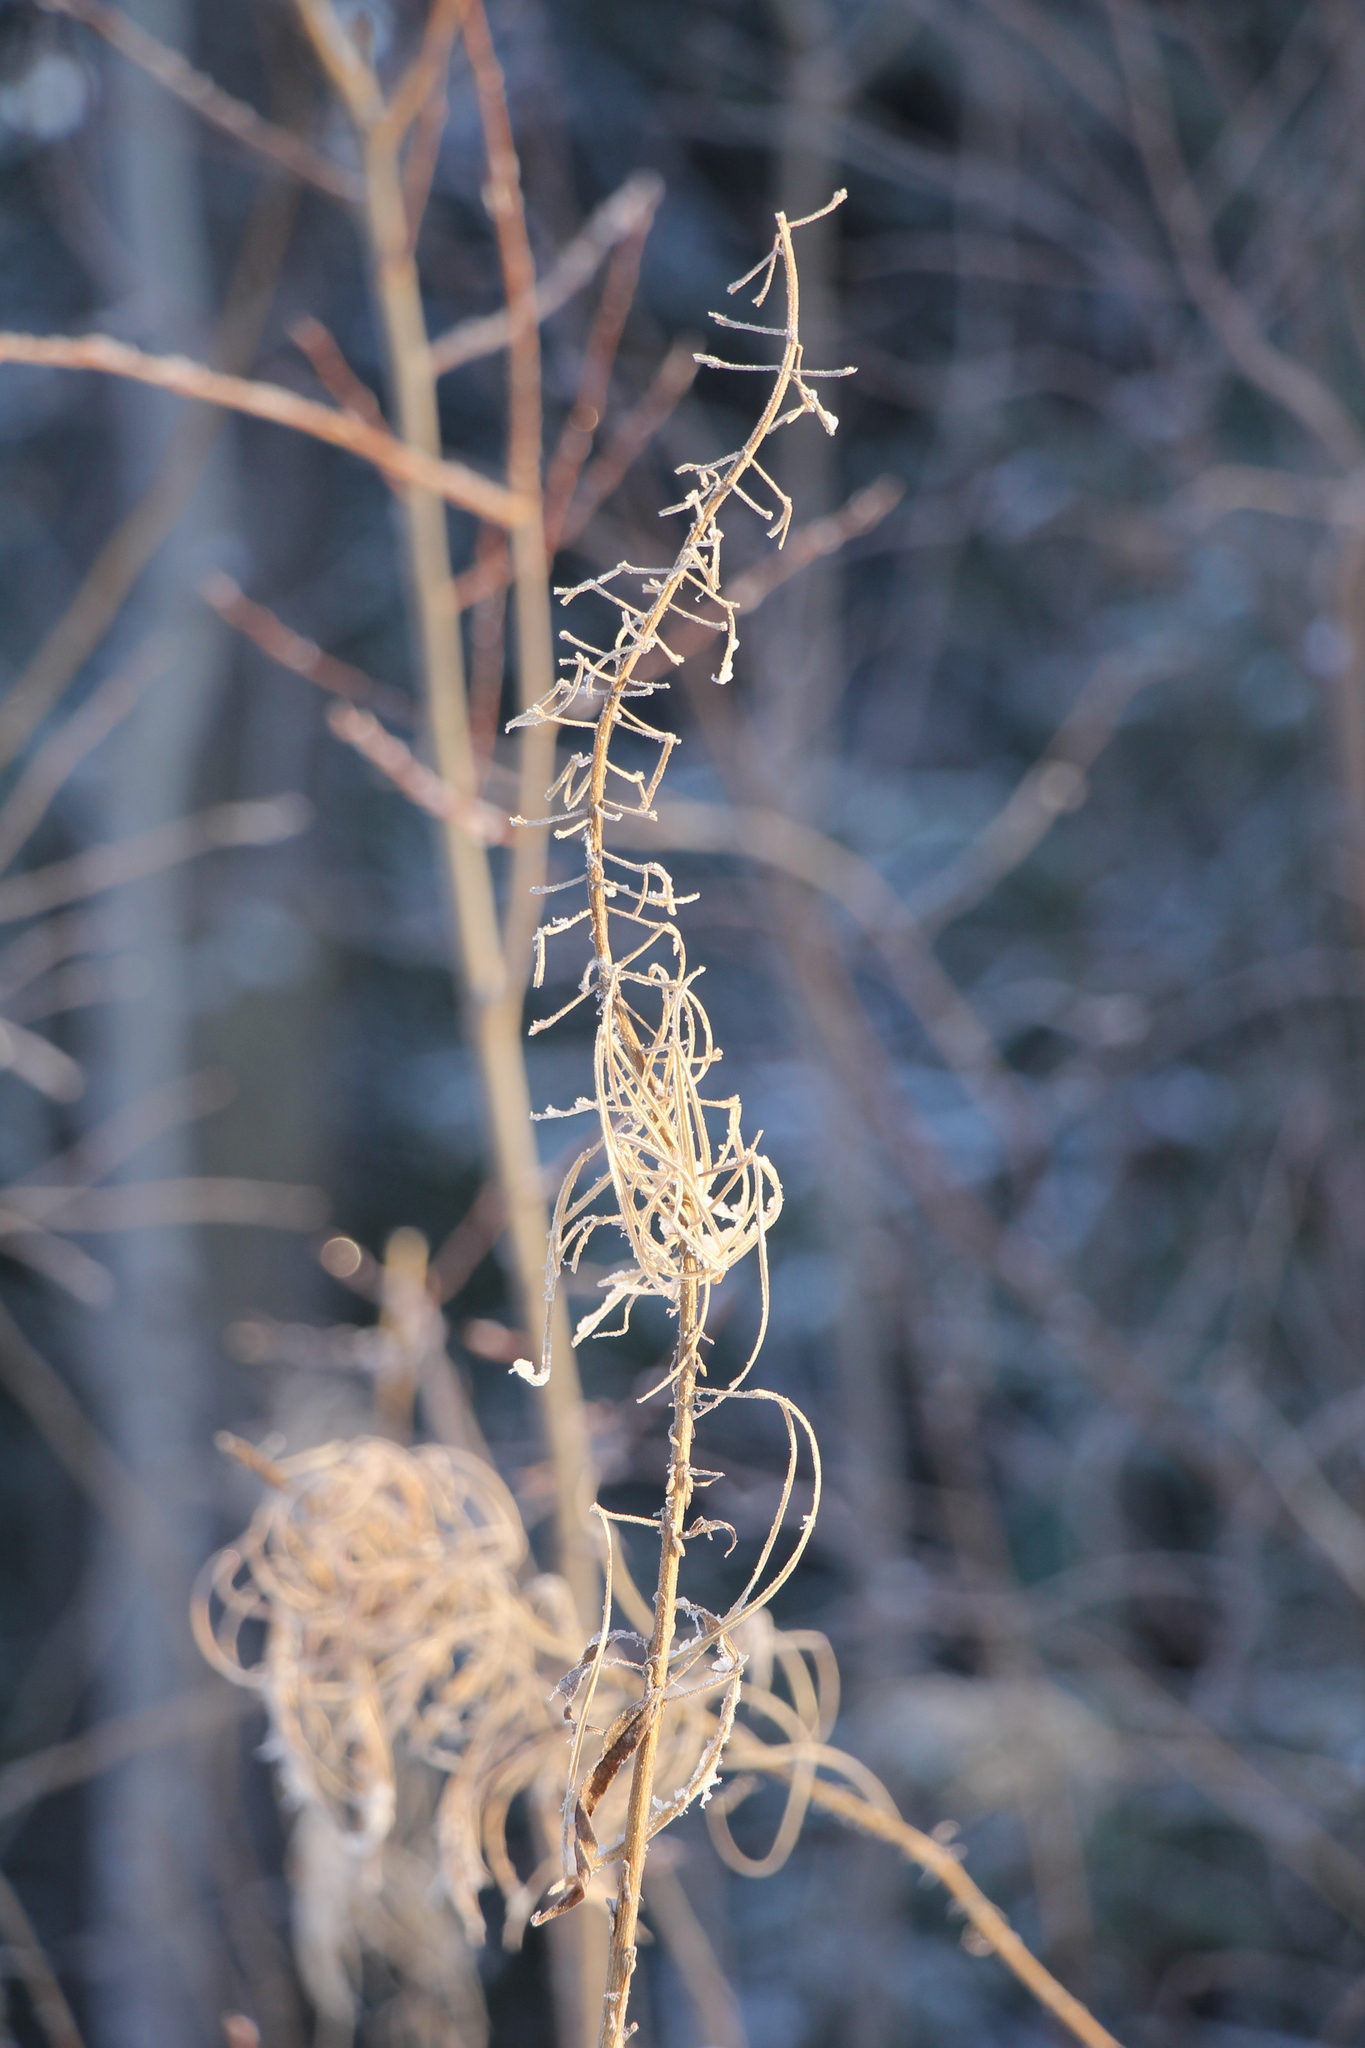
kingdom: Plantae
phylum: Tracheophyta
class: Magnoliopsida
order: Myrtales
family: Onagraceae
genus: Chamaenerion
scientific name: Chamaenerion angustifolium
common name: Fireweed
